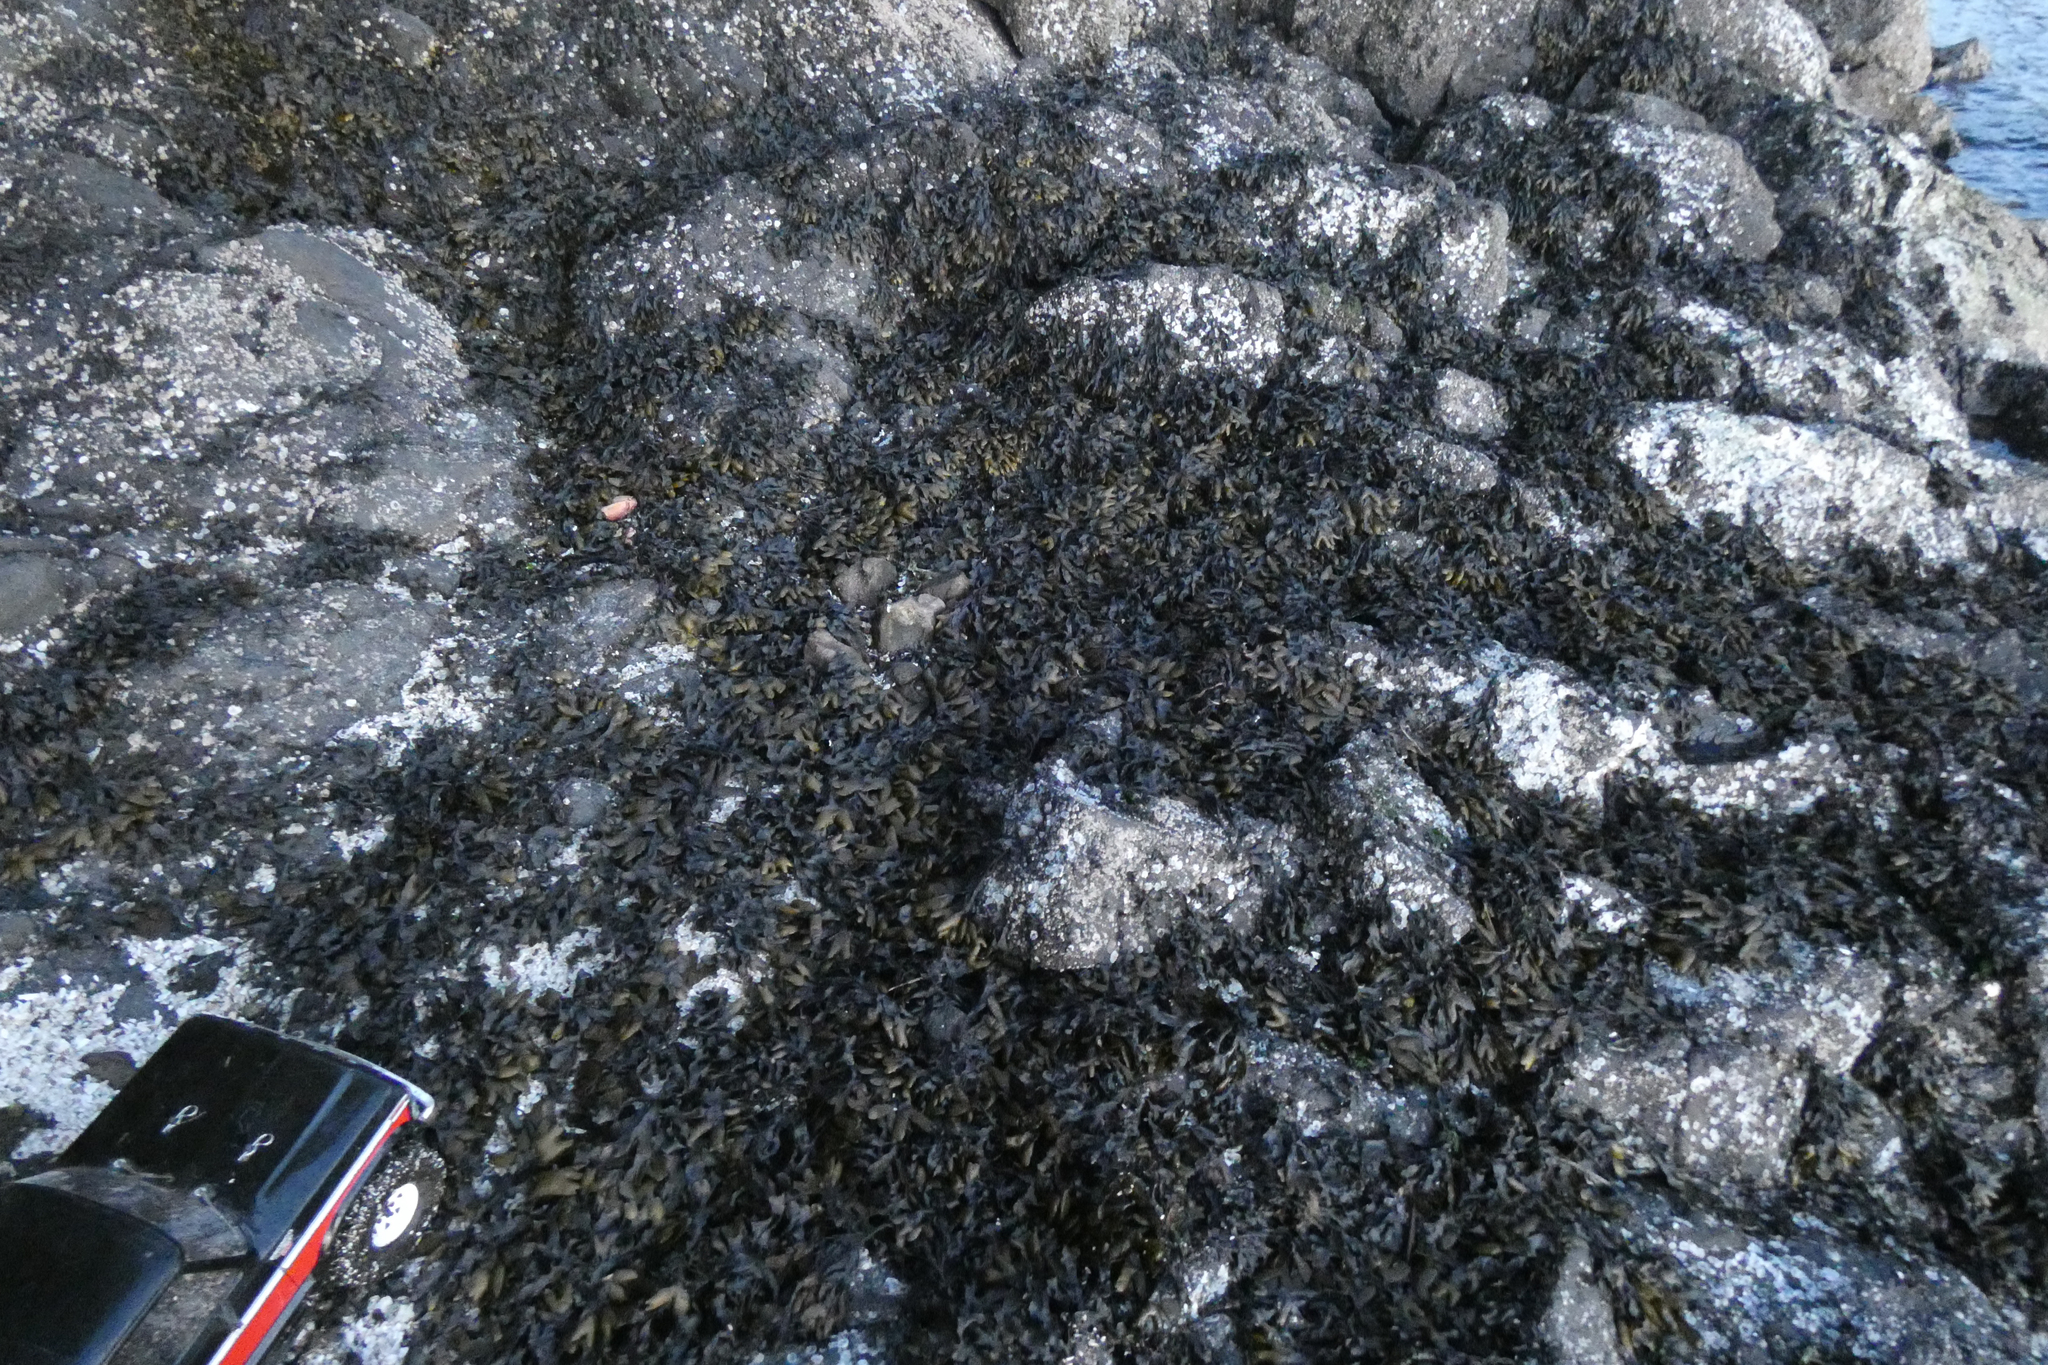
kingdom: Chromista
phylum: Ochrophyta
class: Phaeophyceae
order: Fucales
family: Fucaceae
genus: Fucus
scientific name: Fucus distichus
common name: Rockweed
